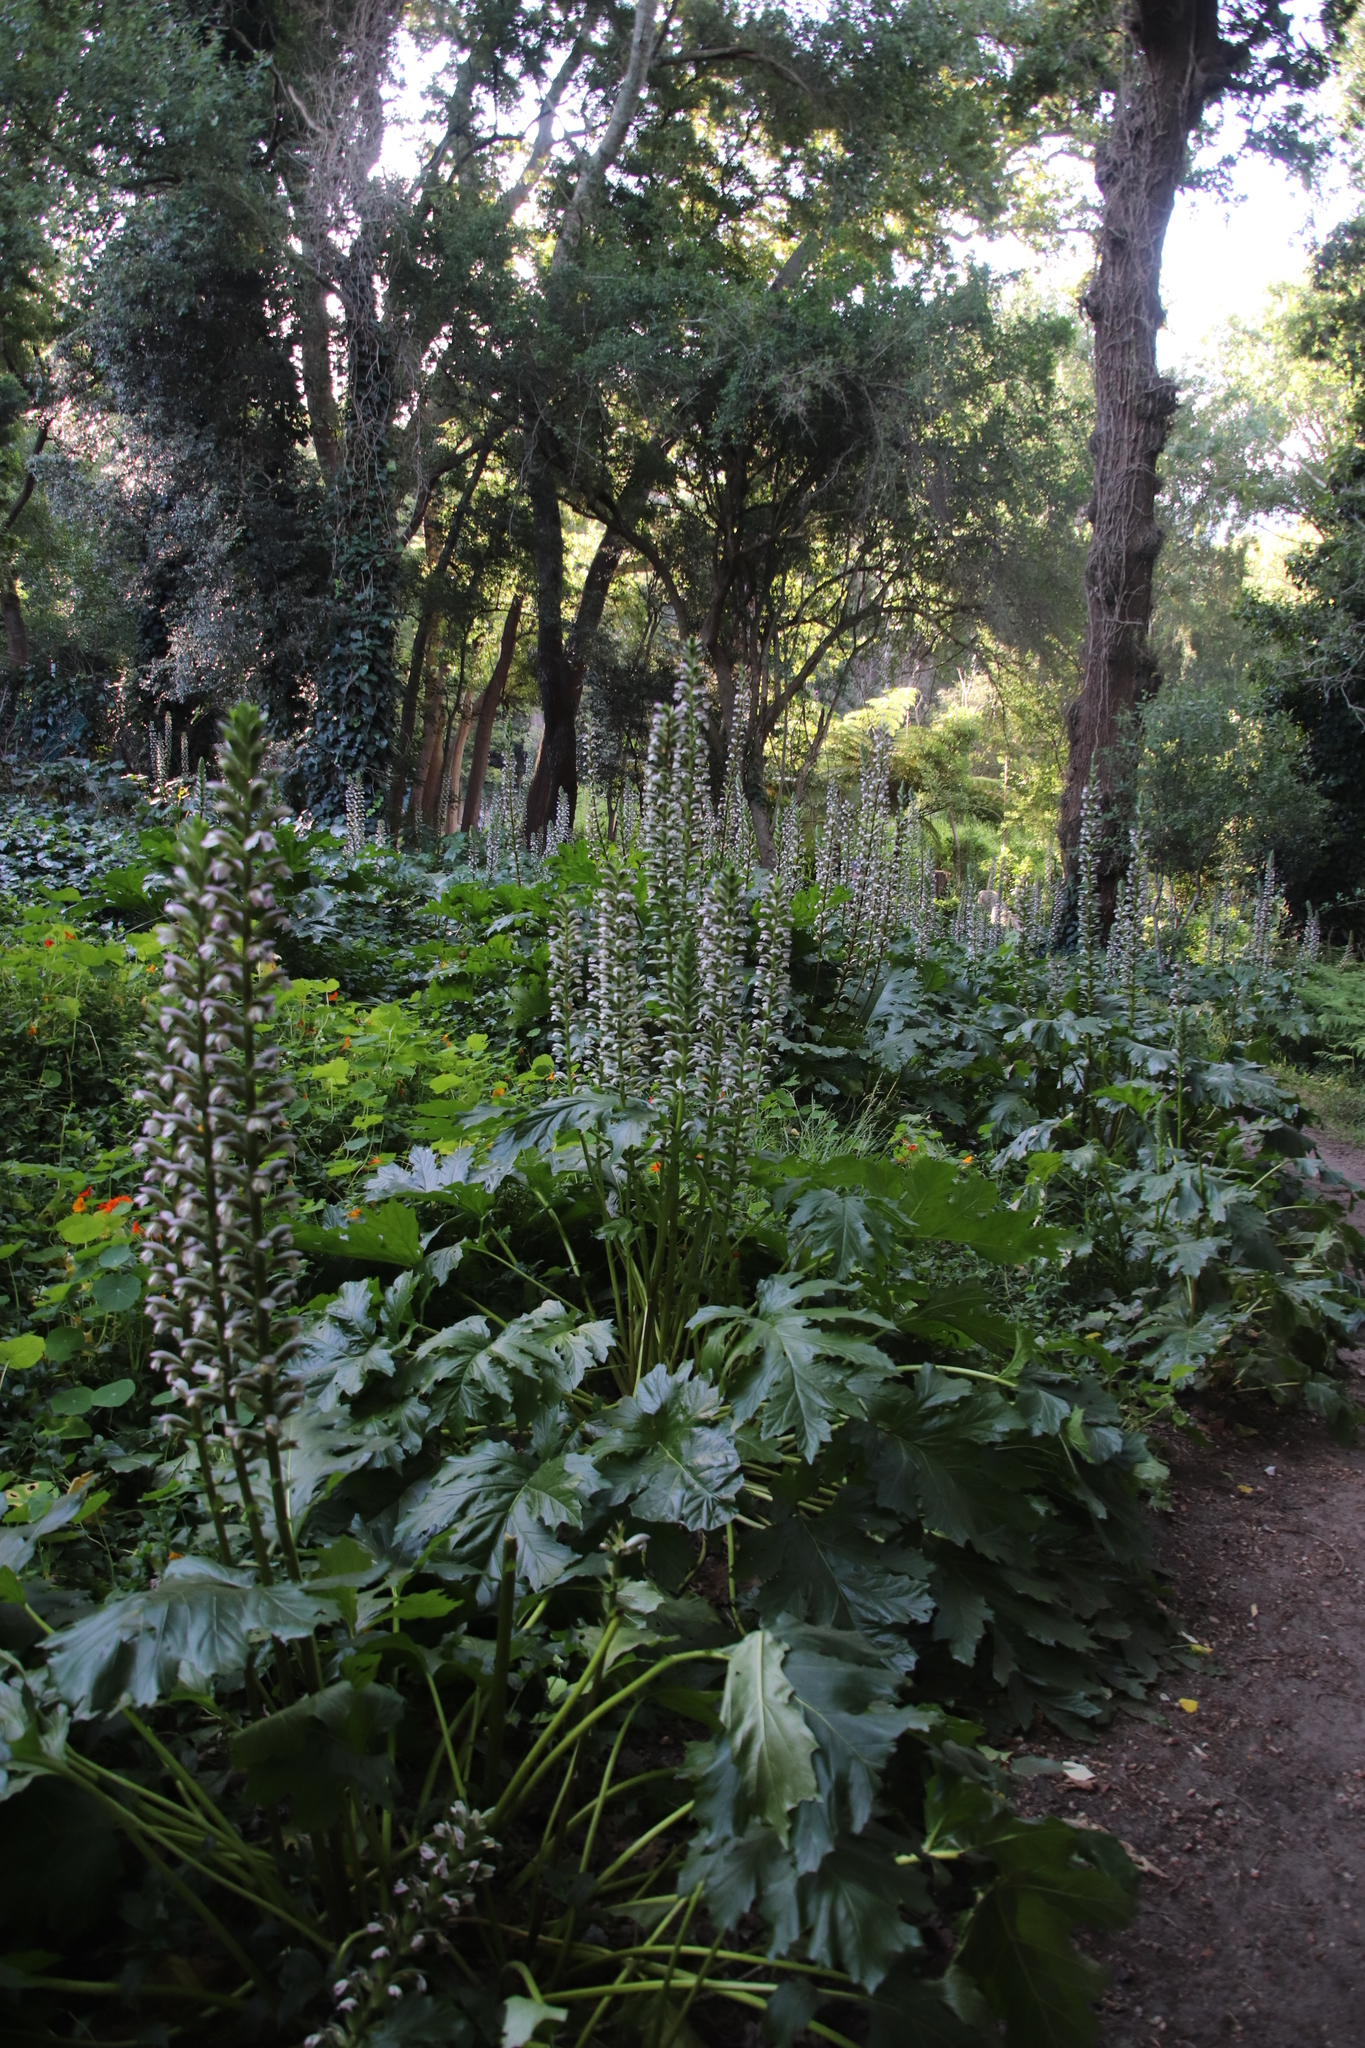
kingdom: Plantae
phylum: Tracheophyta
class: Magnoliopsida
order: Lamiales
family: Acanthaceae
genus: Acanthus
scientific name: Acanthus mollis
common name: Bear's-breech
